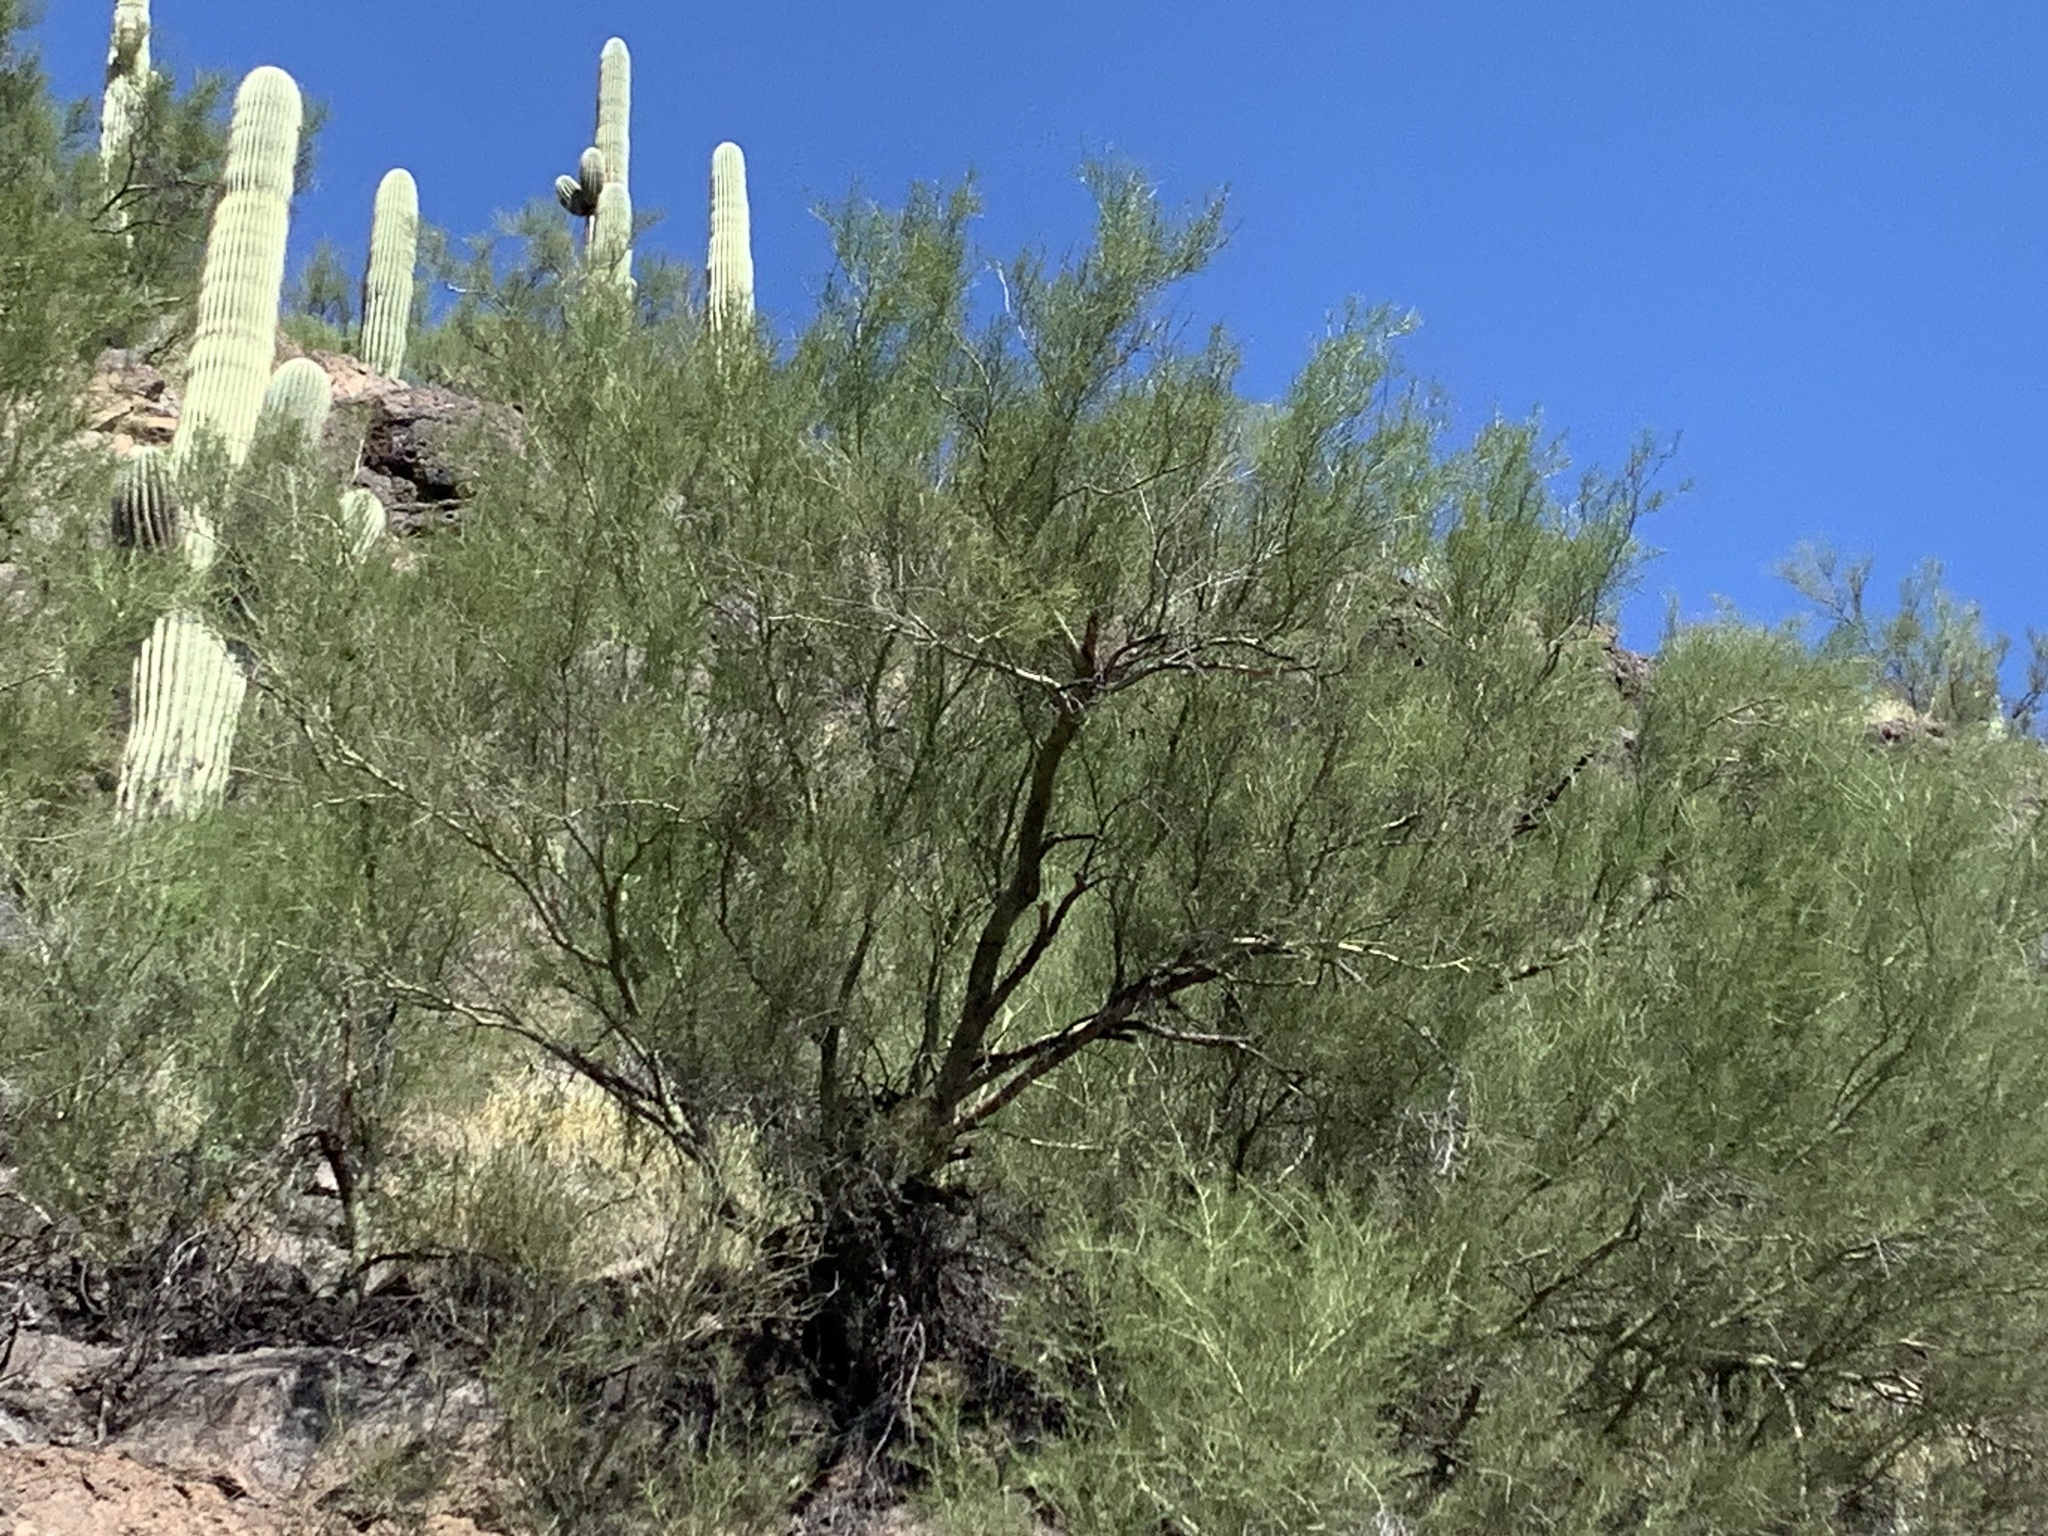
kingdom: Plantae
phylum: Tracheophyta
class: Magnoliopsida
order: Fabales
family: Fabaceae
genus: Parkinsonia
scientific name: Parkinsonia microphylla
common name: Yellow paloverde
